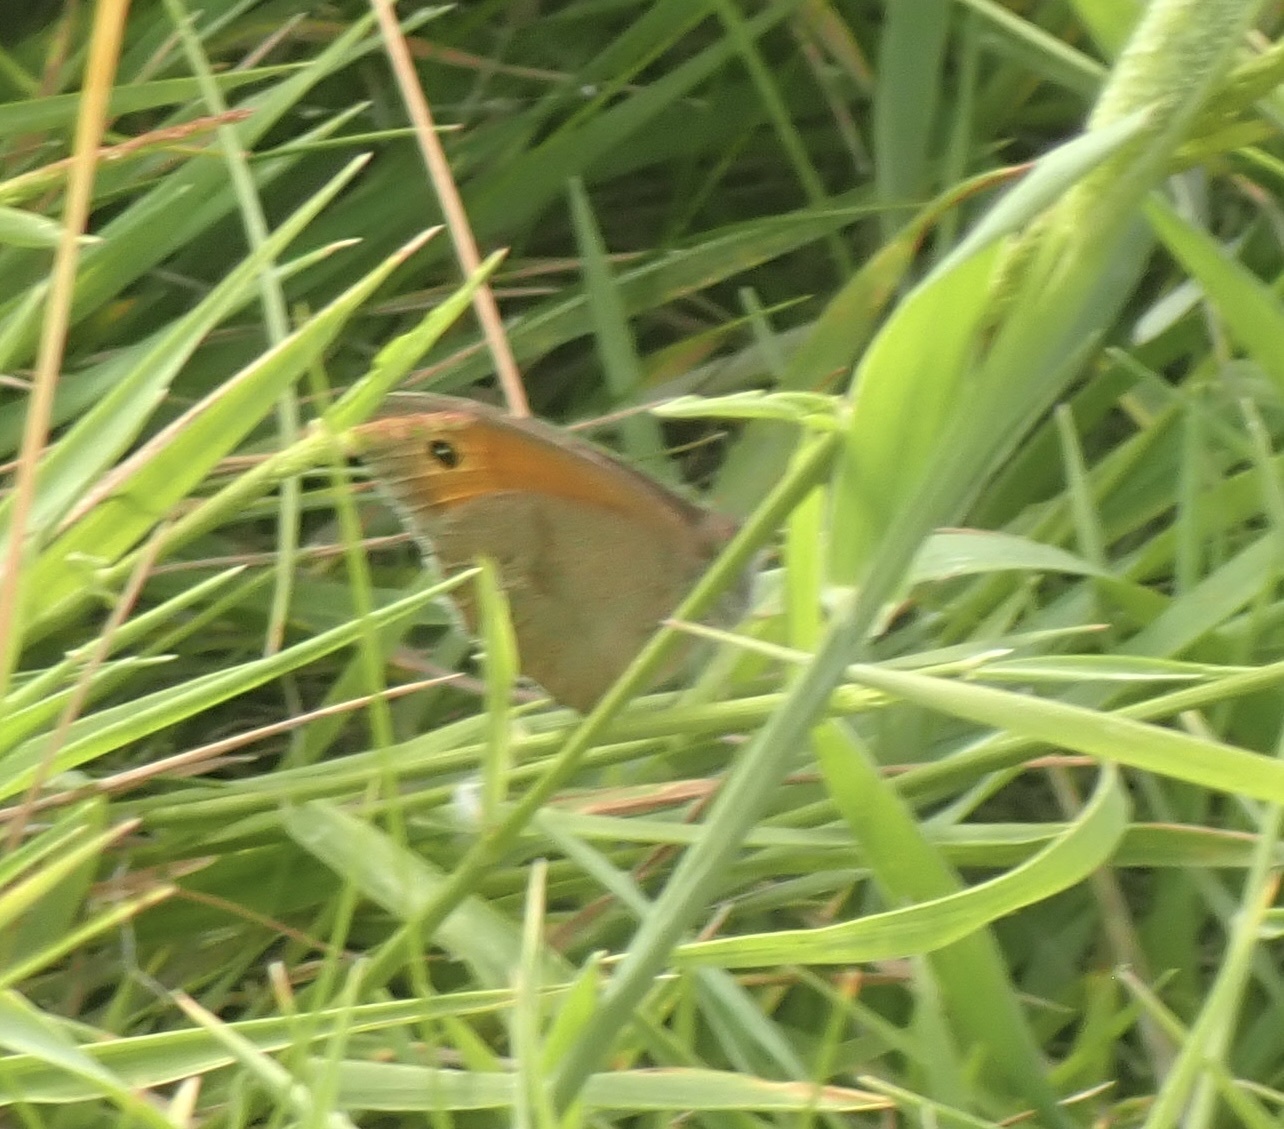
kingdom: Animalia
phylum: Arthropoda
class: Insecta
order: Lepidoptera
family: Nymphalidae
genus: Maniola
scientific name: Maniola jurtina
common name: Meadow brown
